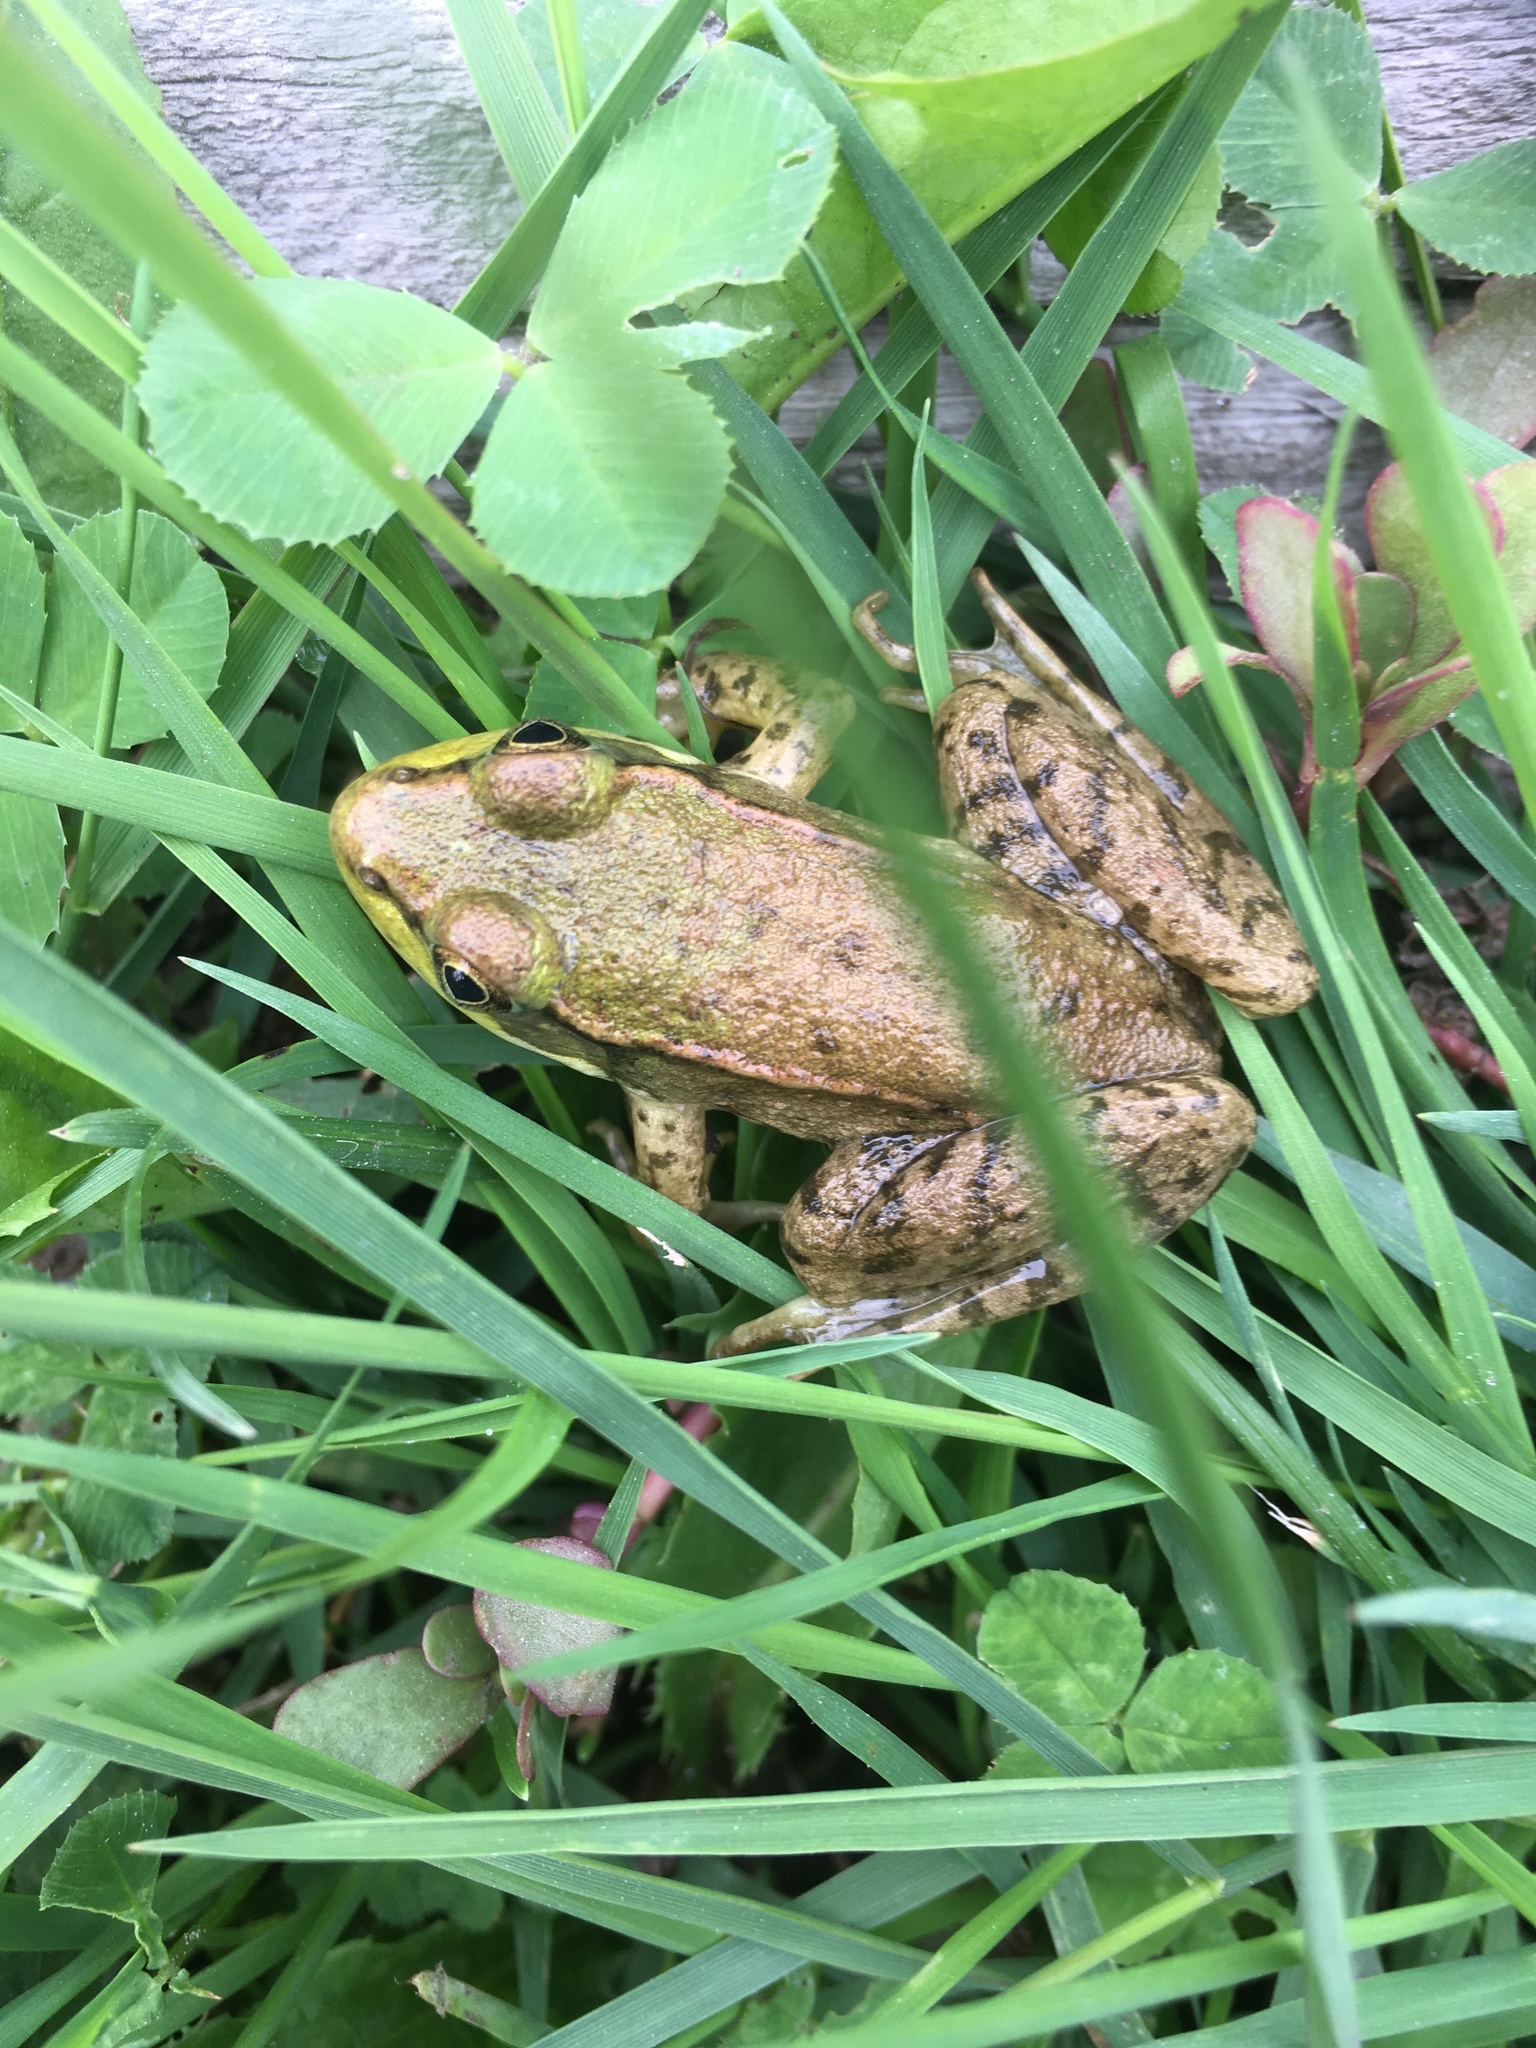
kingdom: Animalia
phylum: Chordata
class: Amphibia
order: Anura
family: Ranidae
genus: Lithobates
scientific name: Lithobates clamitans
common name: Green frog
